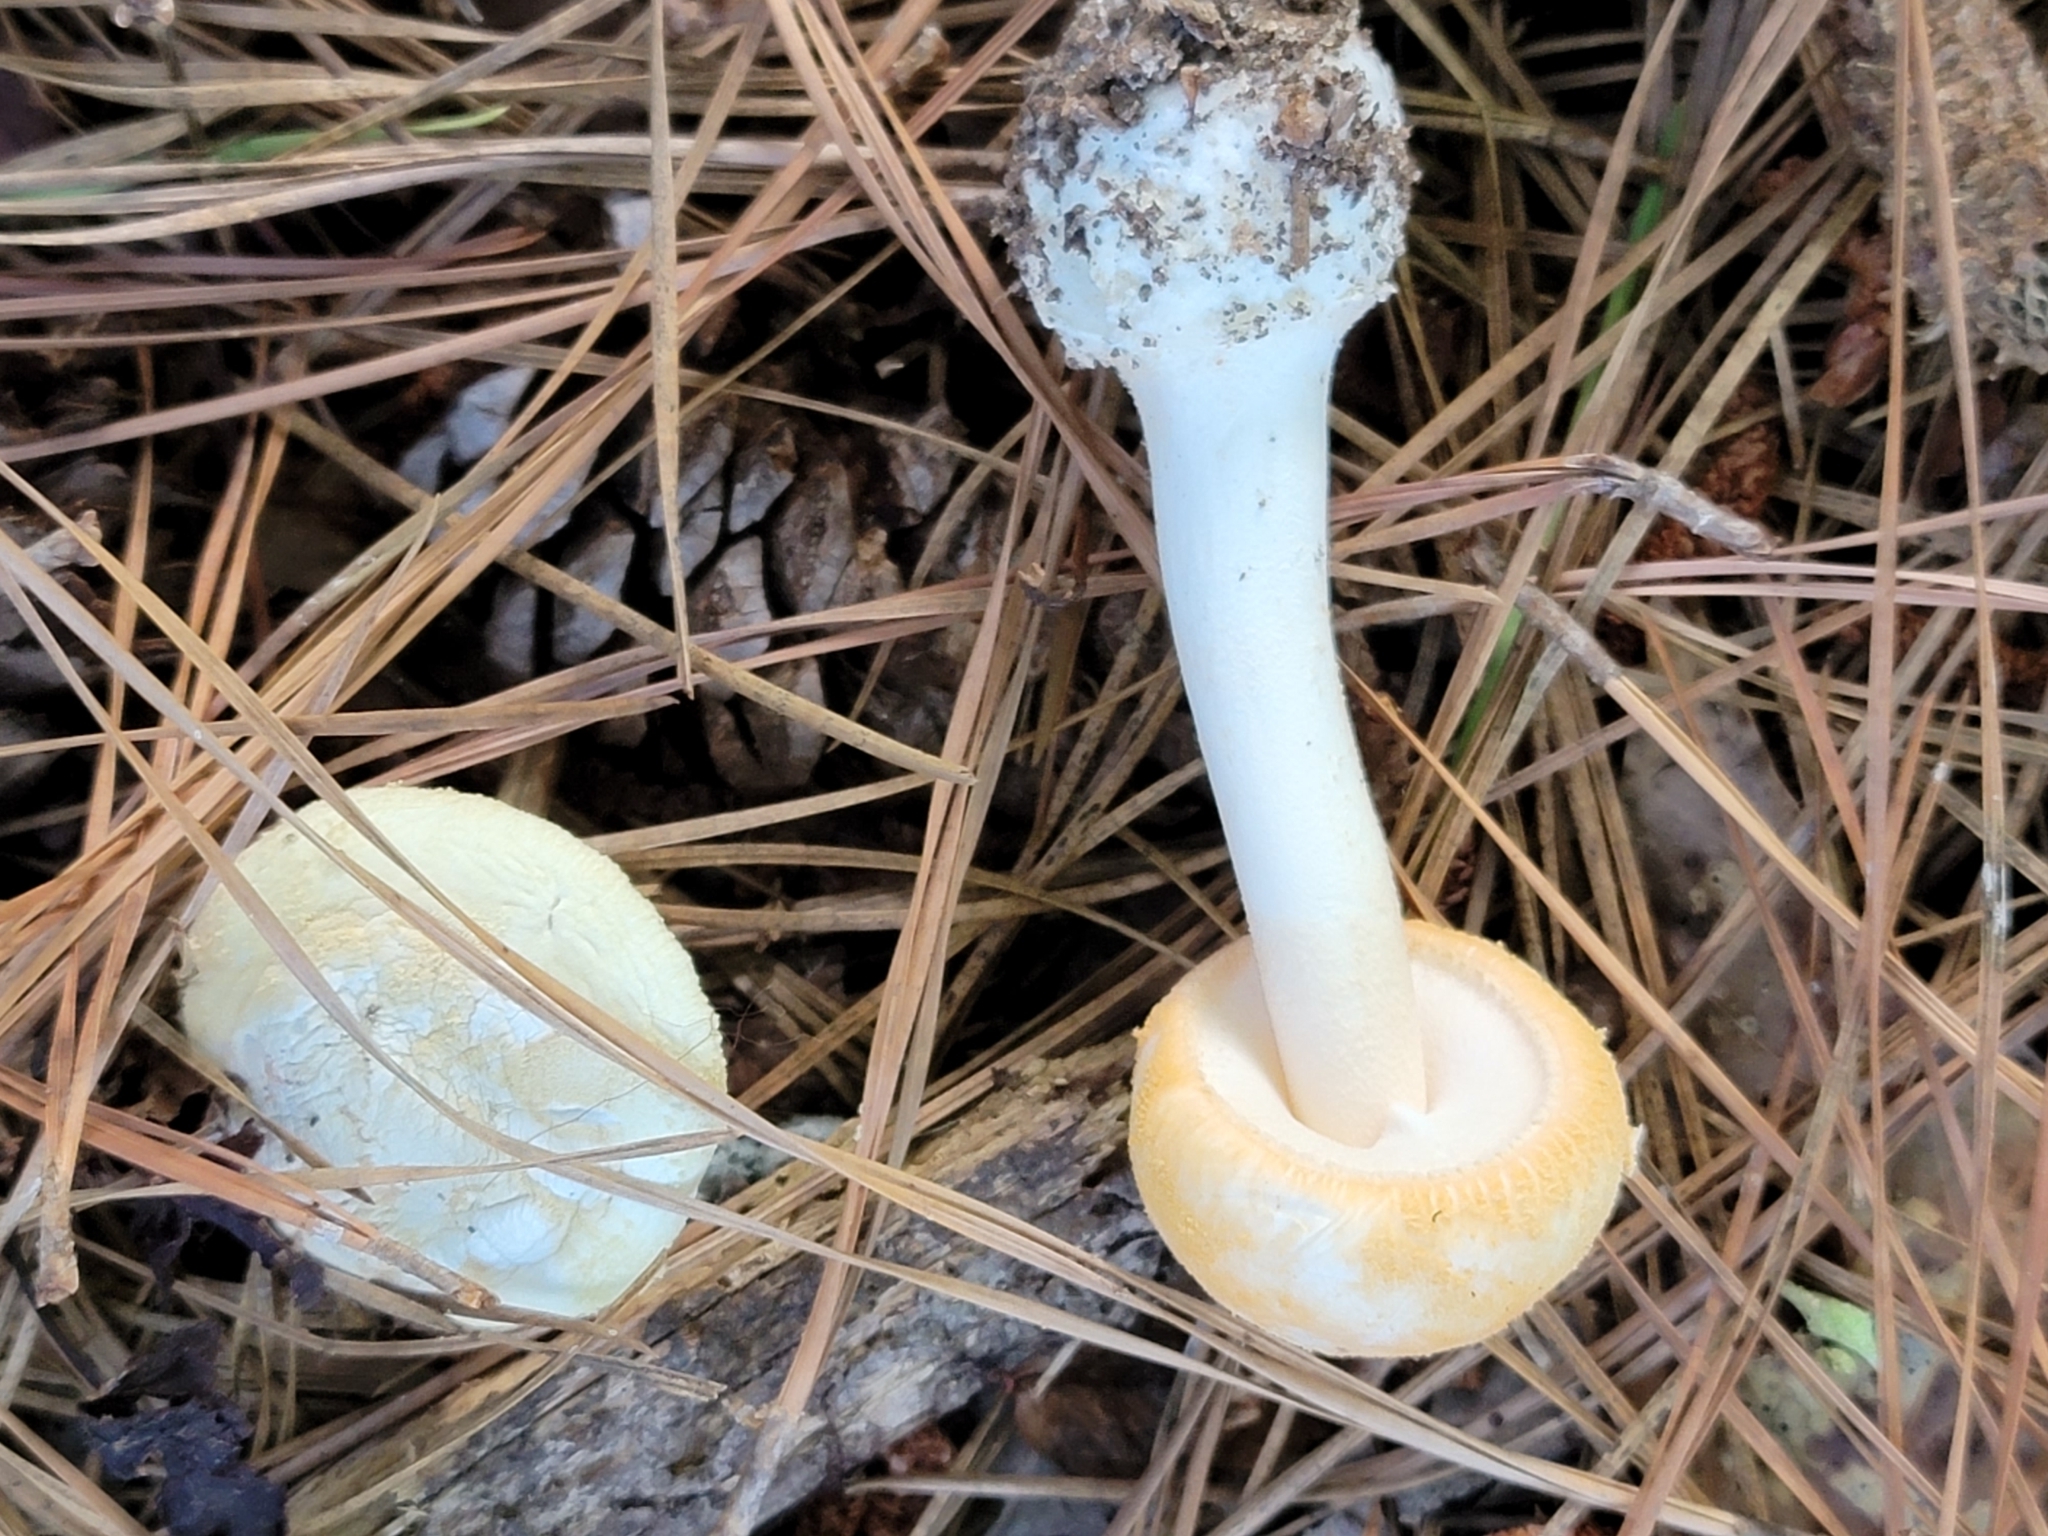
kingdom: Fungi
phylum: Basidiomycota
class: Agaricomycetes
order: Agaricales
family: Amanitaceae
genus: Amanita
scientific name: Amanita roseotincta
